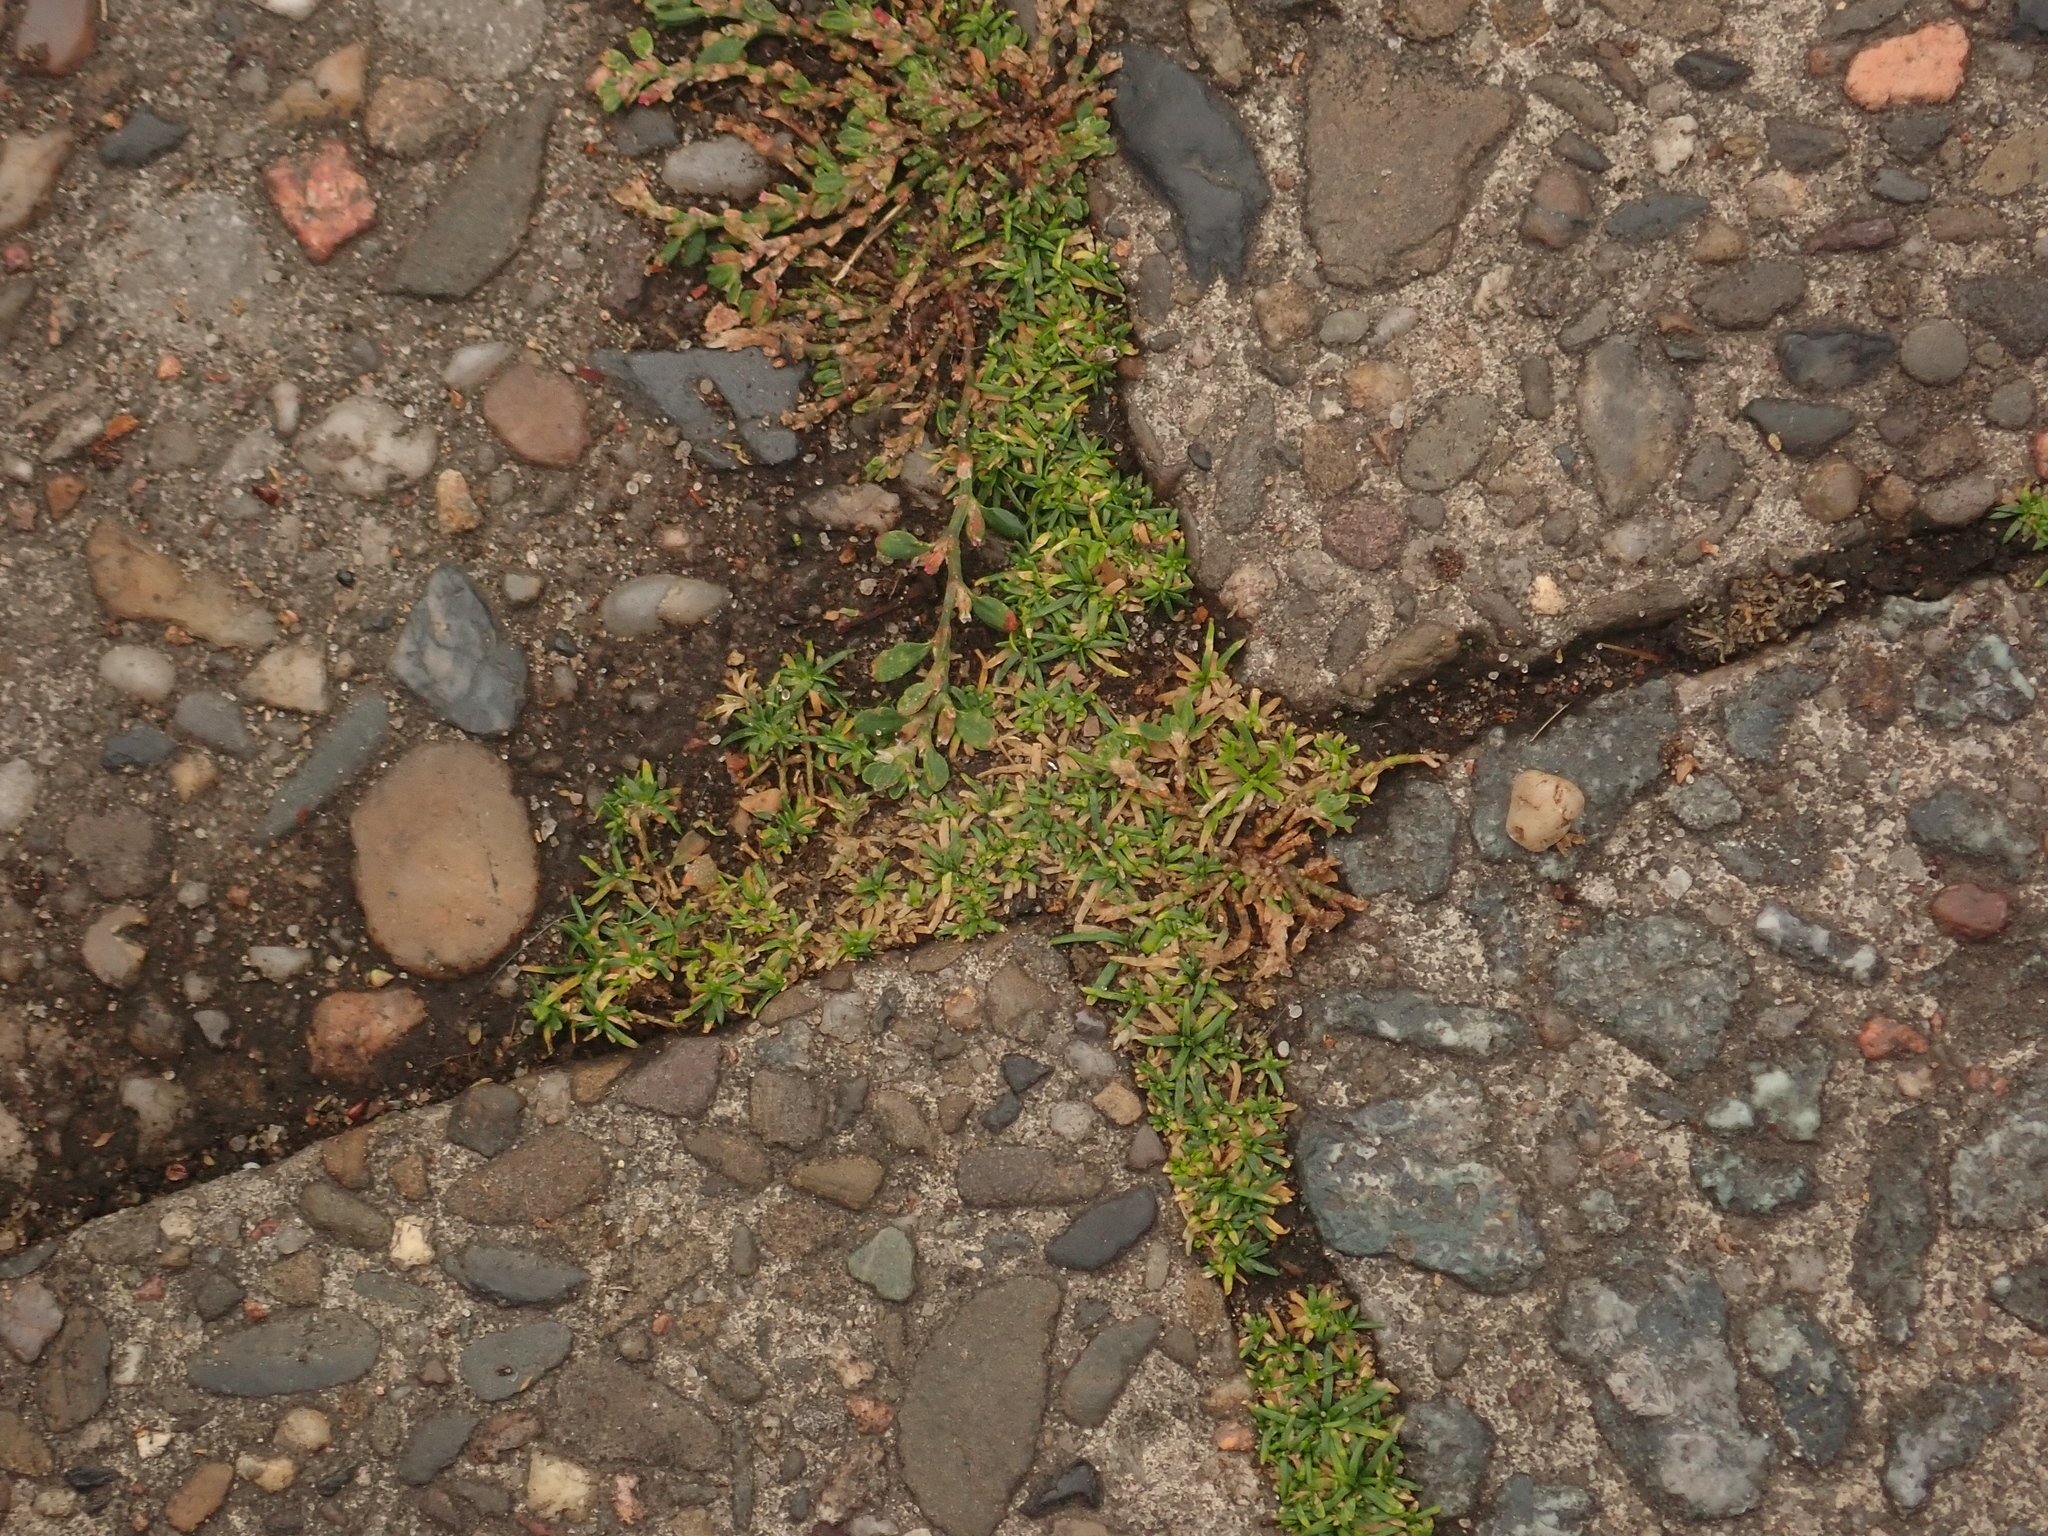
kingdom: Plantae
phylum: Tracheophyta
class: Magnoliopsida
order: Caryophyllales
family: Caryophyllaceae
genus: Sagina
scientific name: Sagina procumbens
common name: Procumbent pearlwort
